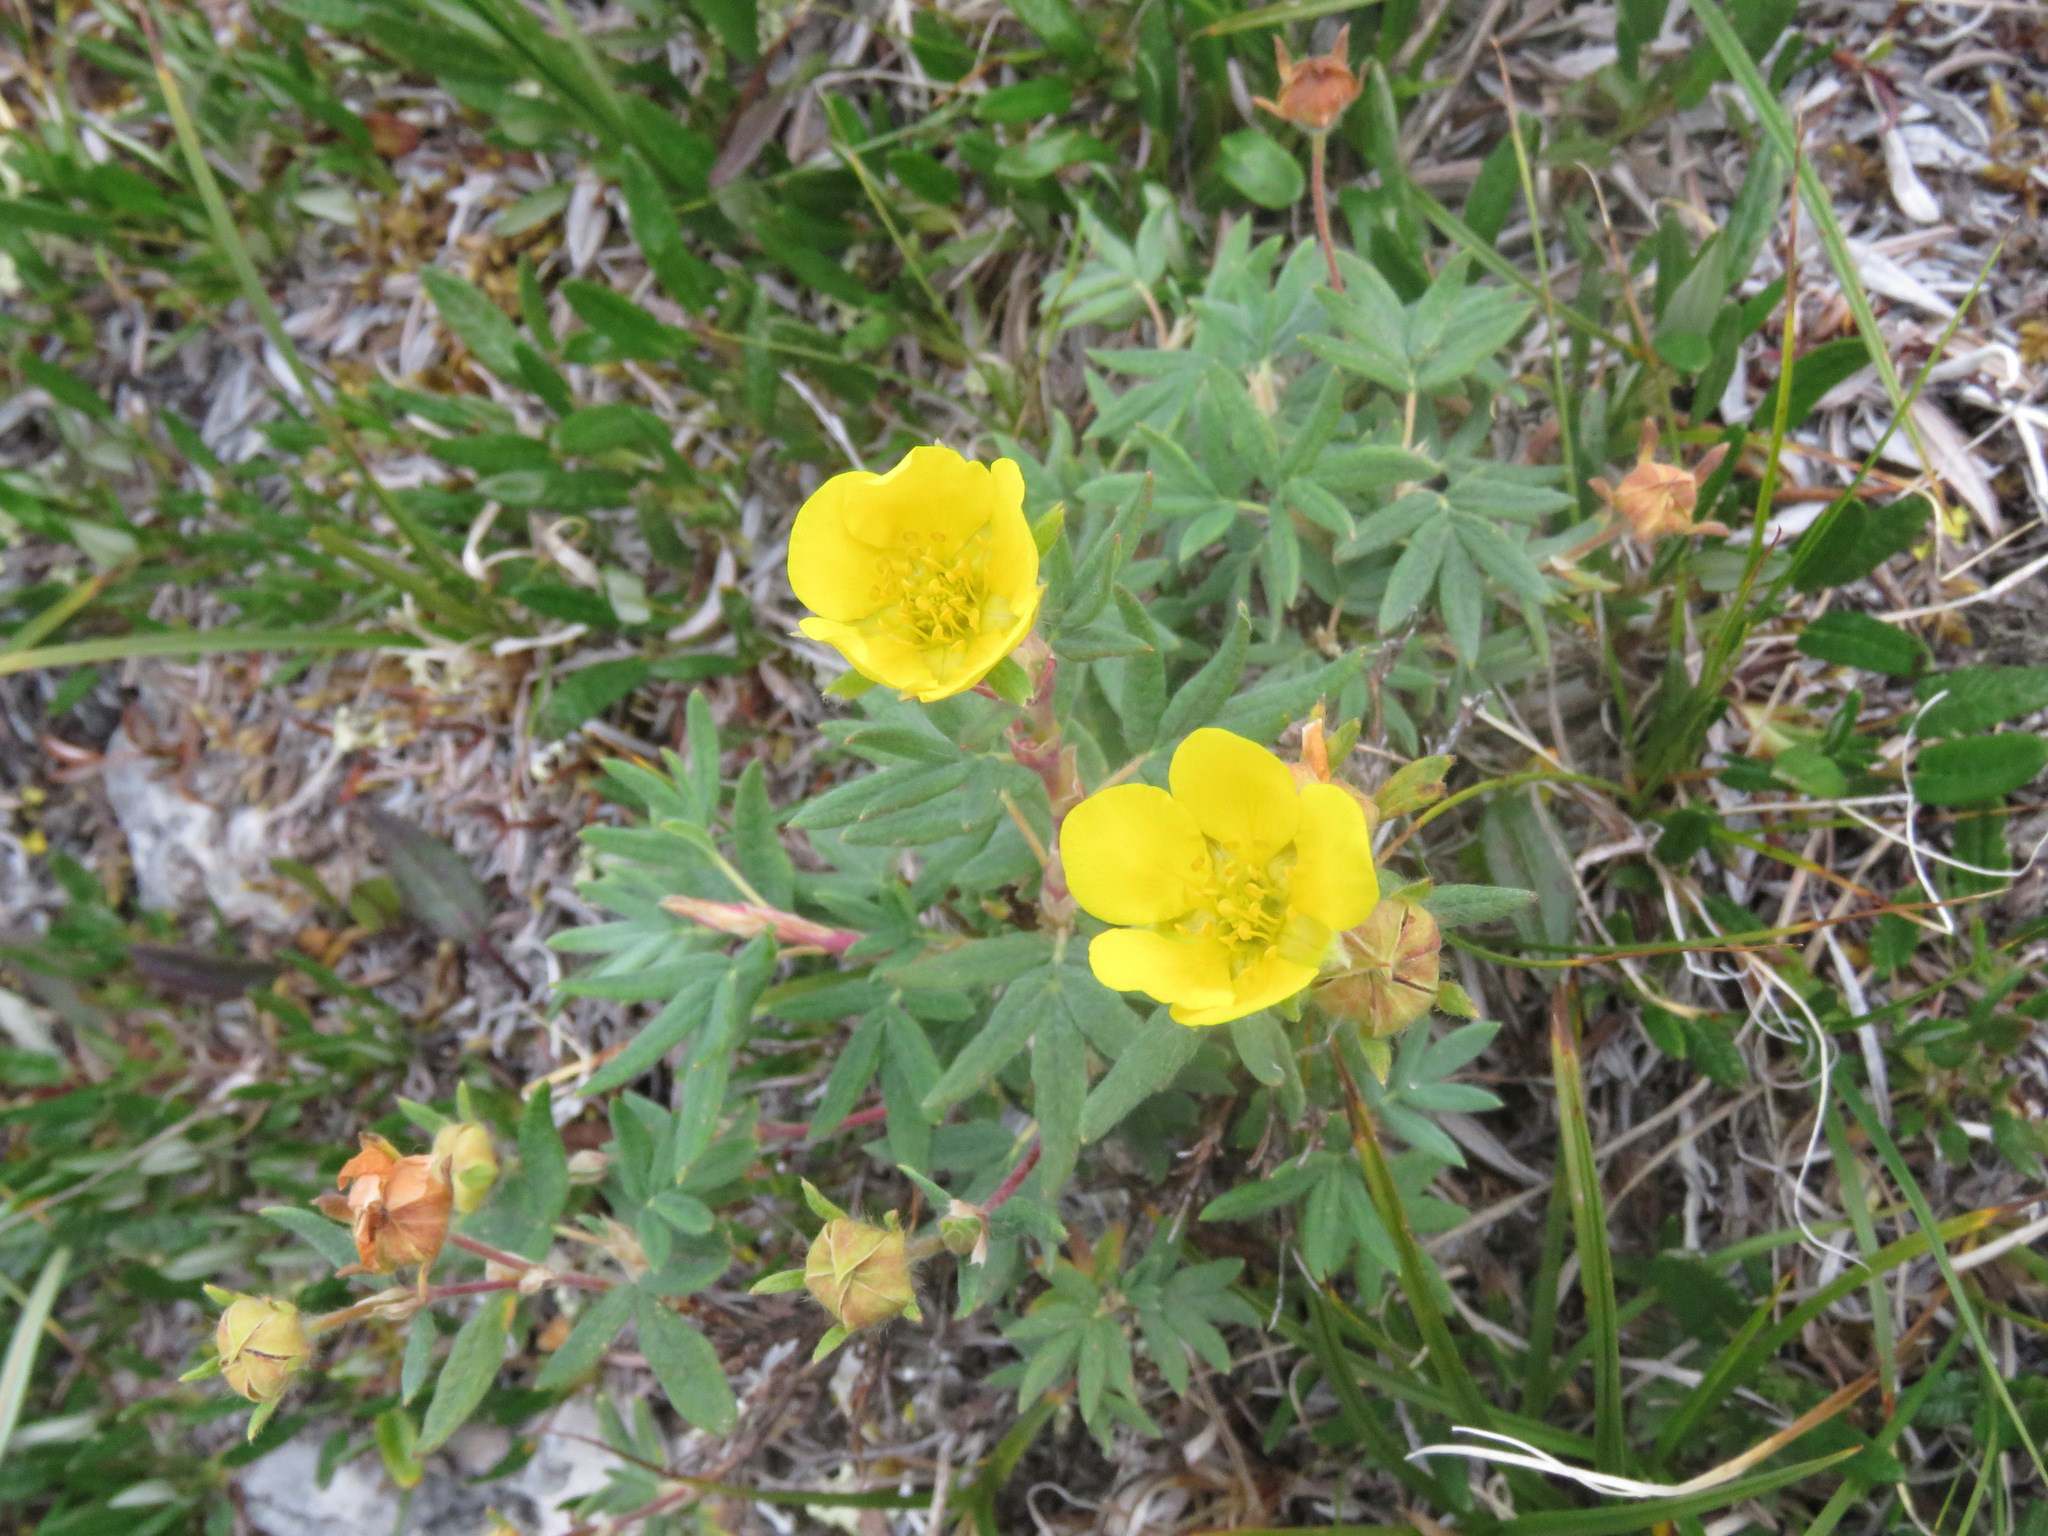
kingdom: Plantae
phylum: Tracheophyta
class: Magnoliopsida
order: Rosales
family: Rosaceae
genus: Dasiphora
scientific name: Dasiphora fruticosa
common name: Shrubby cinquefoil
